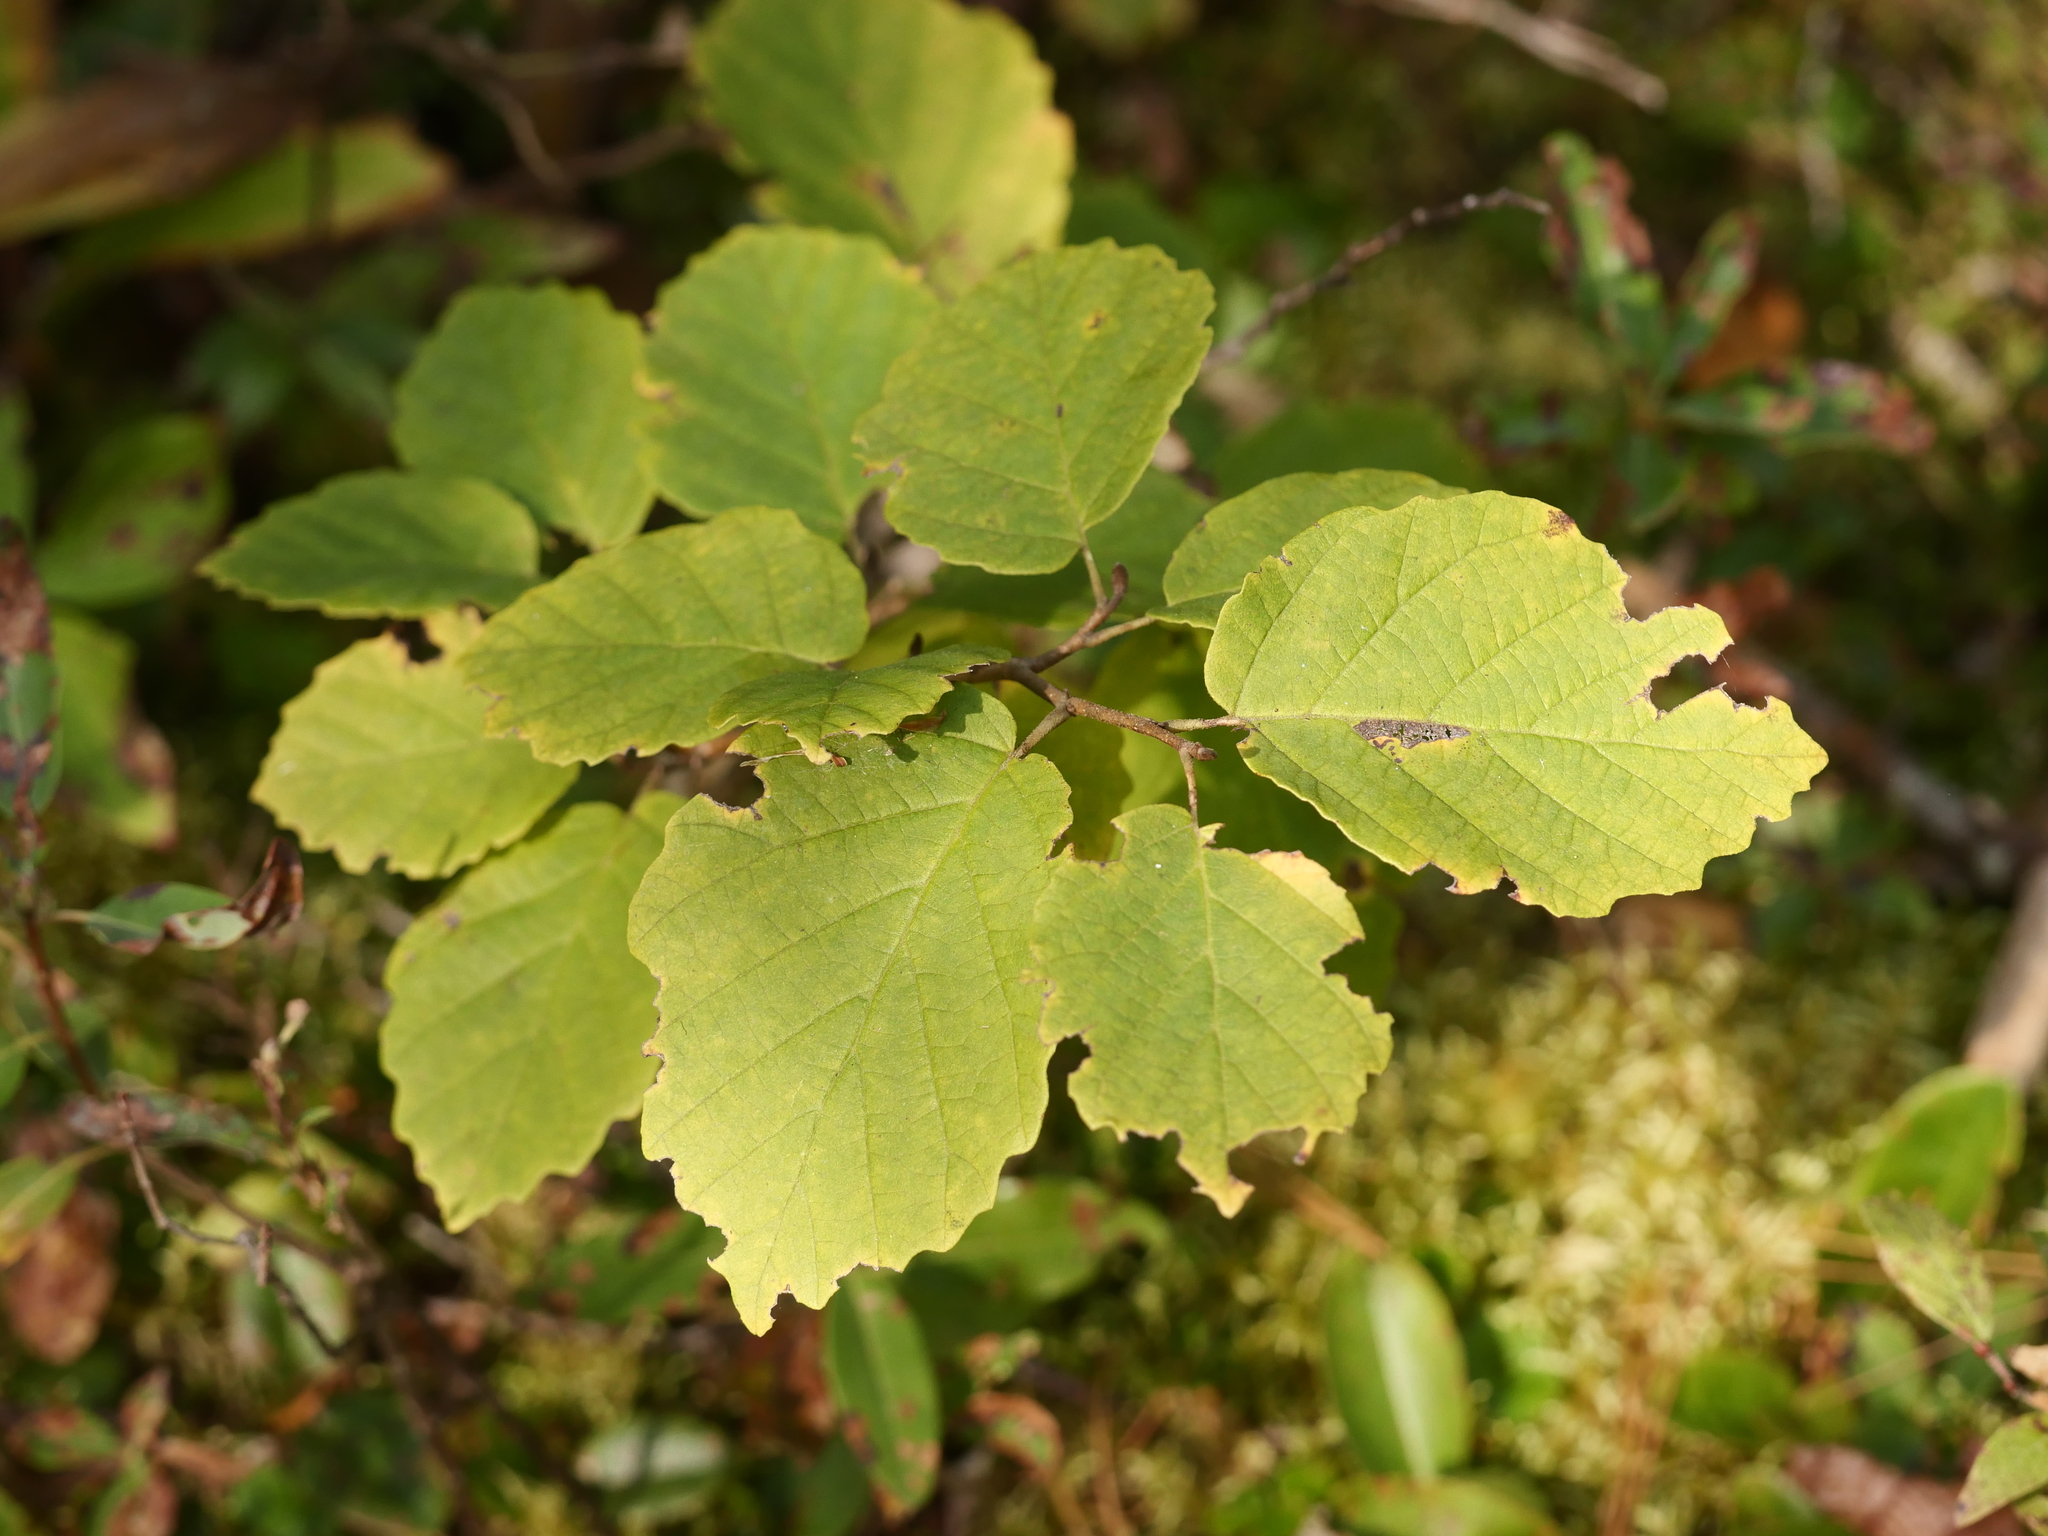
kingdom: Plantae
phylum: Tracheophyta
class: Magnoliopsida
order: Saxifragales
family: Hamamelidaceae
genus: Hamamelis
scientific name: Hamamelis virginiana
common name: Witch-hazel
